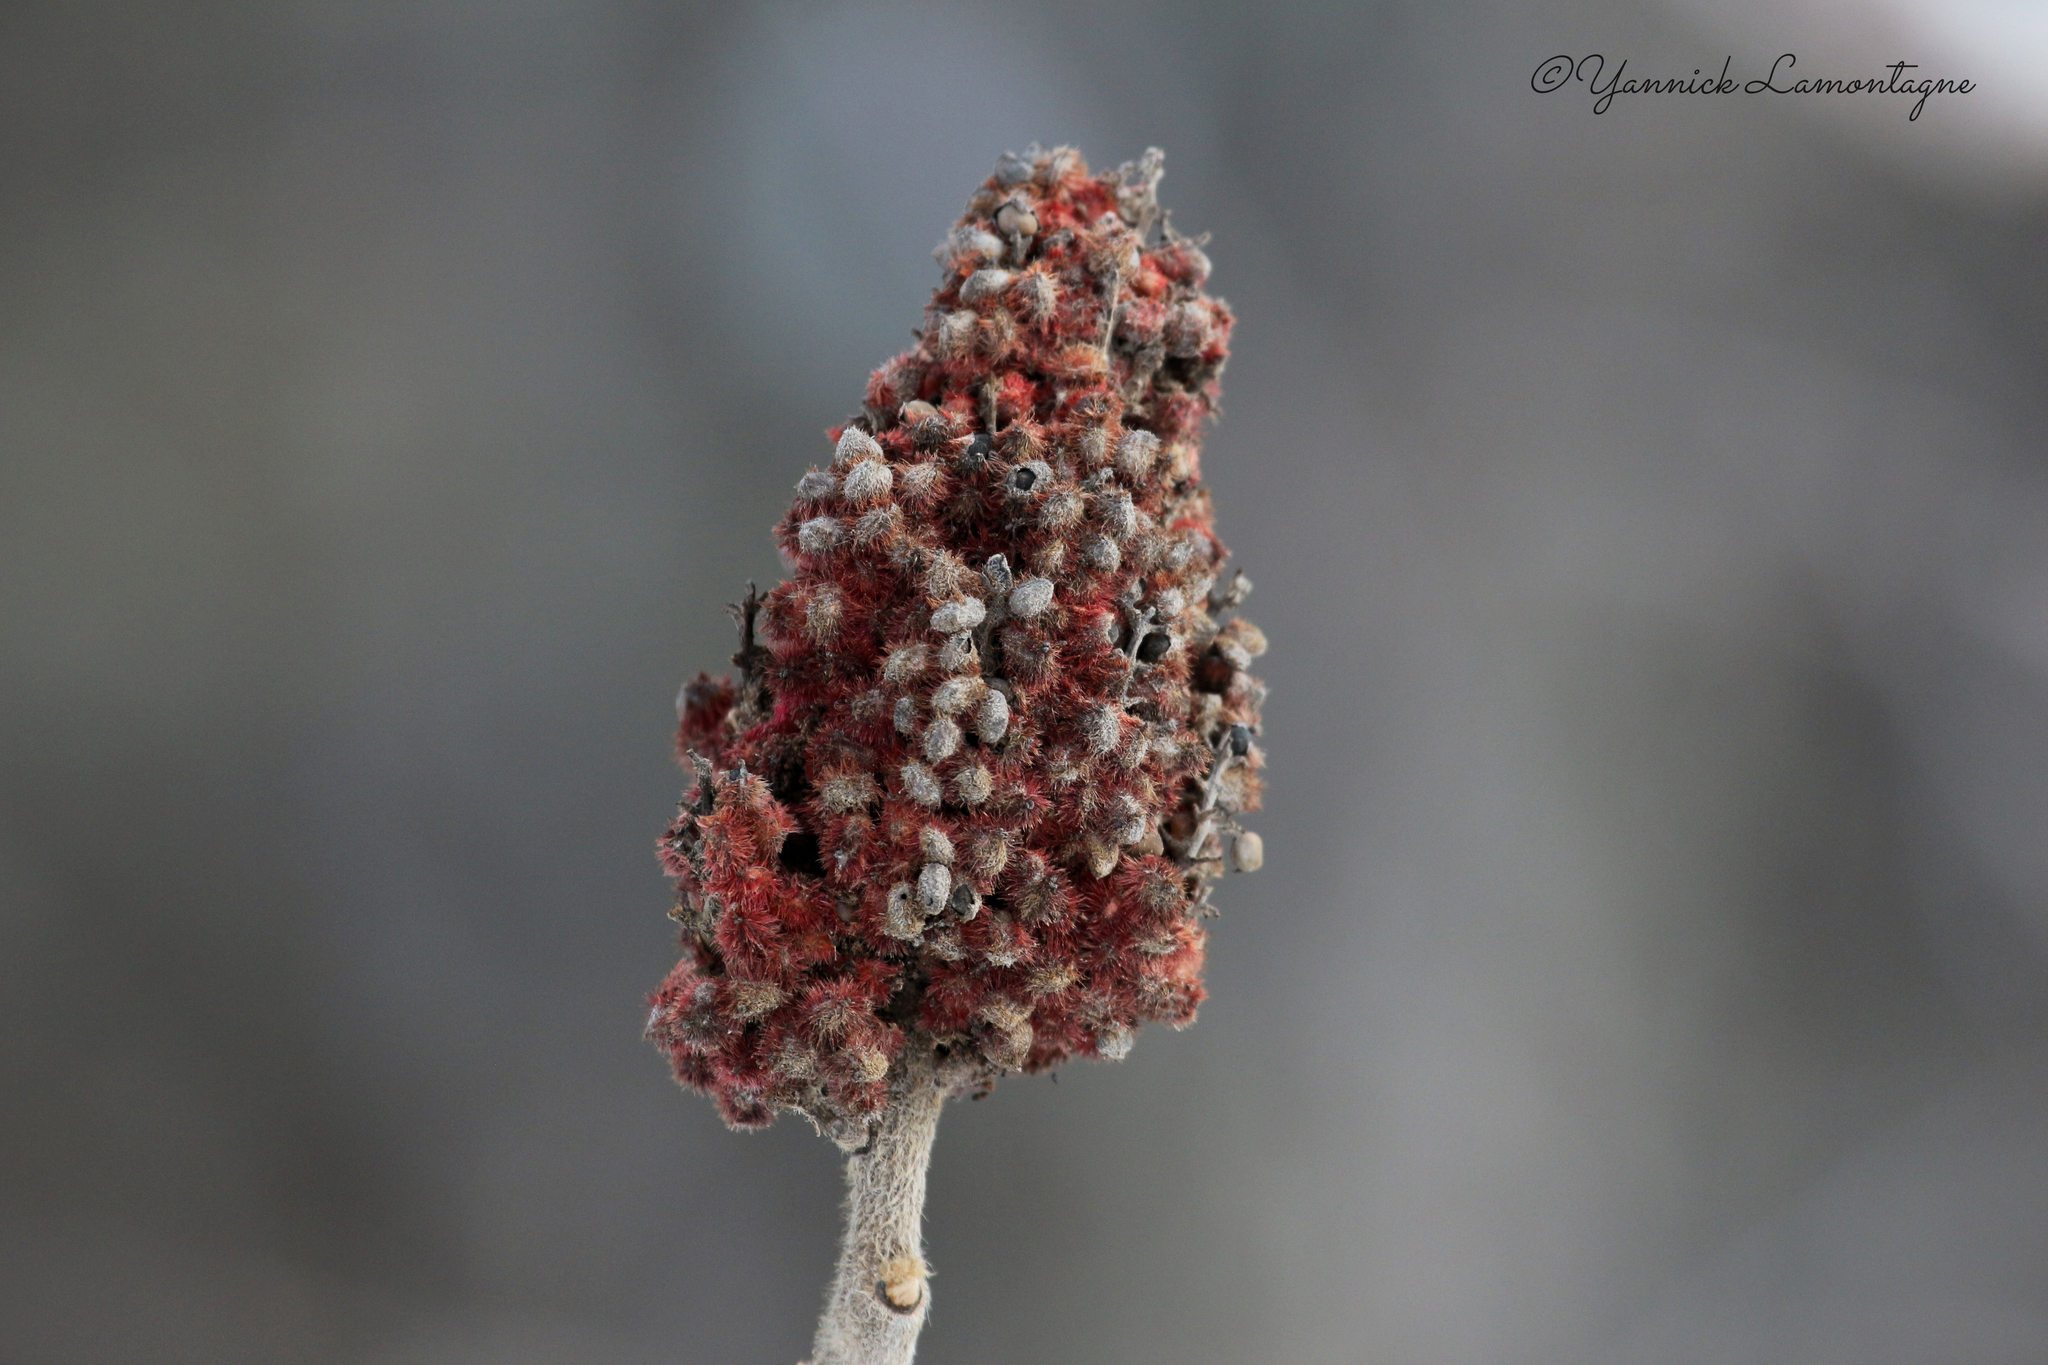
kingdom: Plantae
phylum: Tracheophyta
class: Magnoliopsida
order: Sapindales
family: Anacardiaceae
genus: Rhus
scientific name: Rhus typhina
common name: Staghorn sumac
